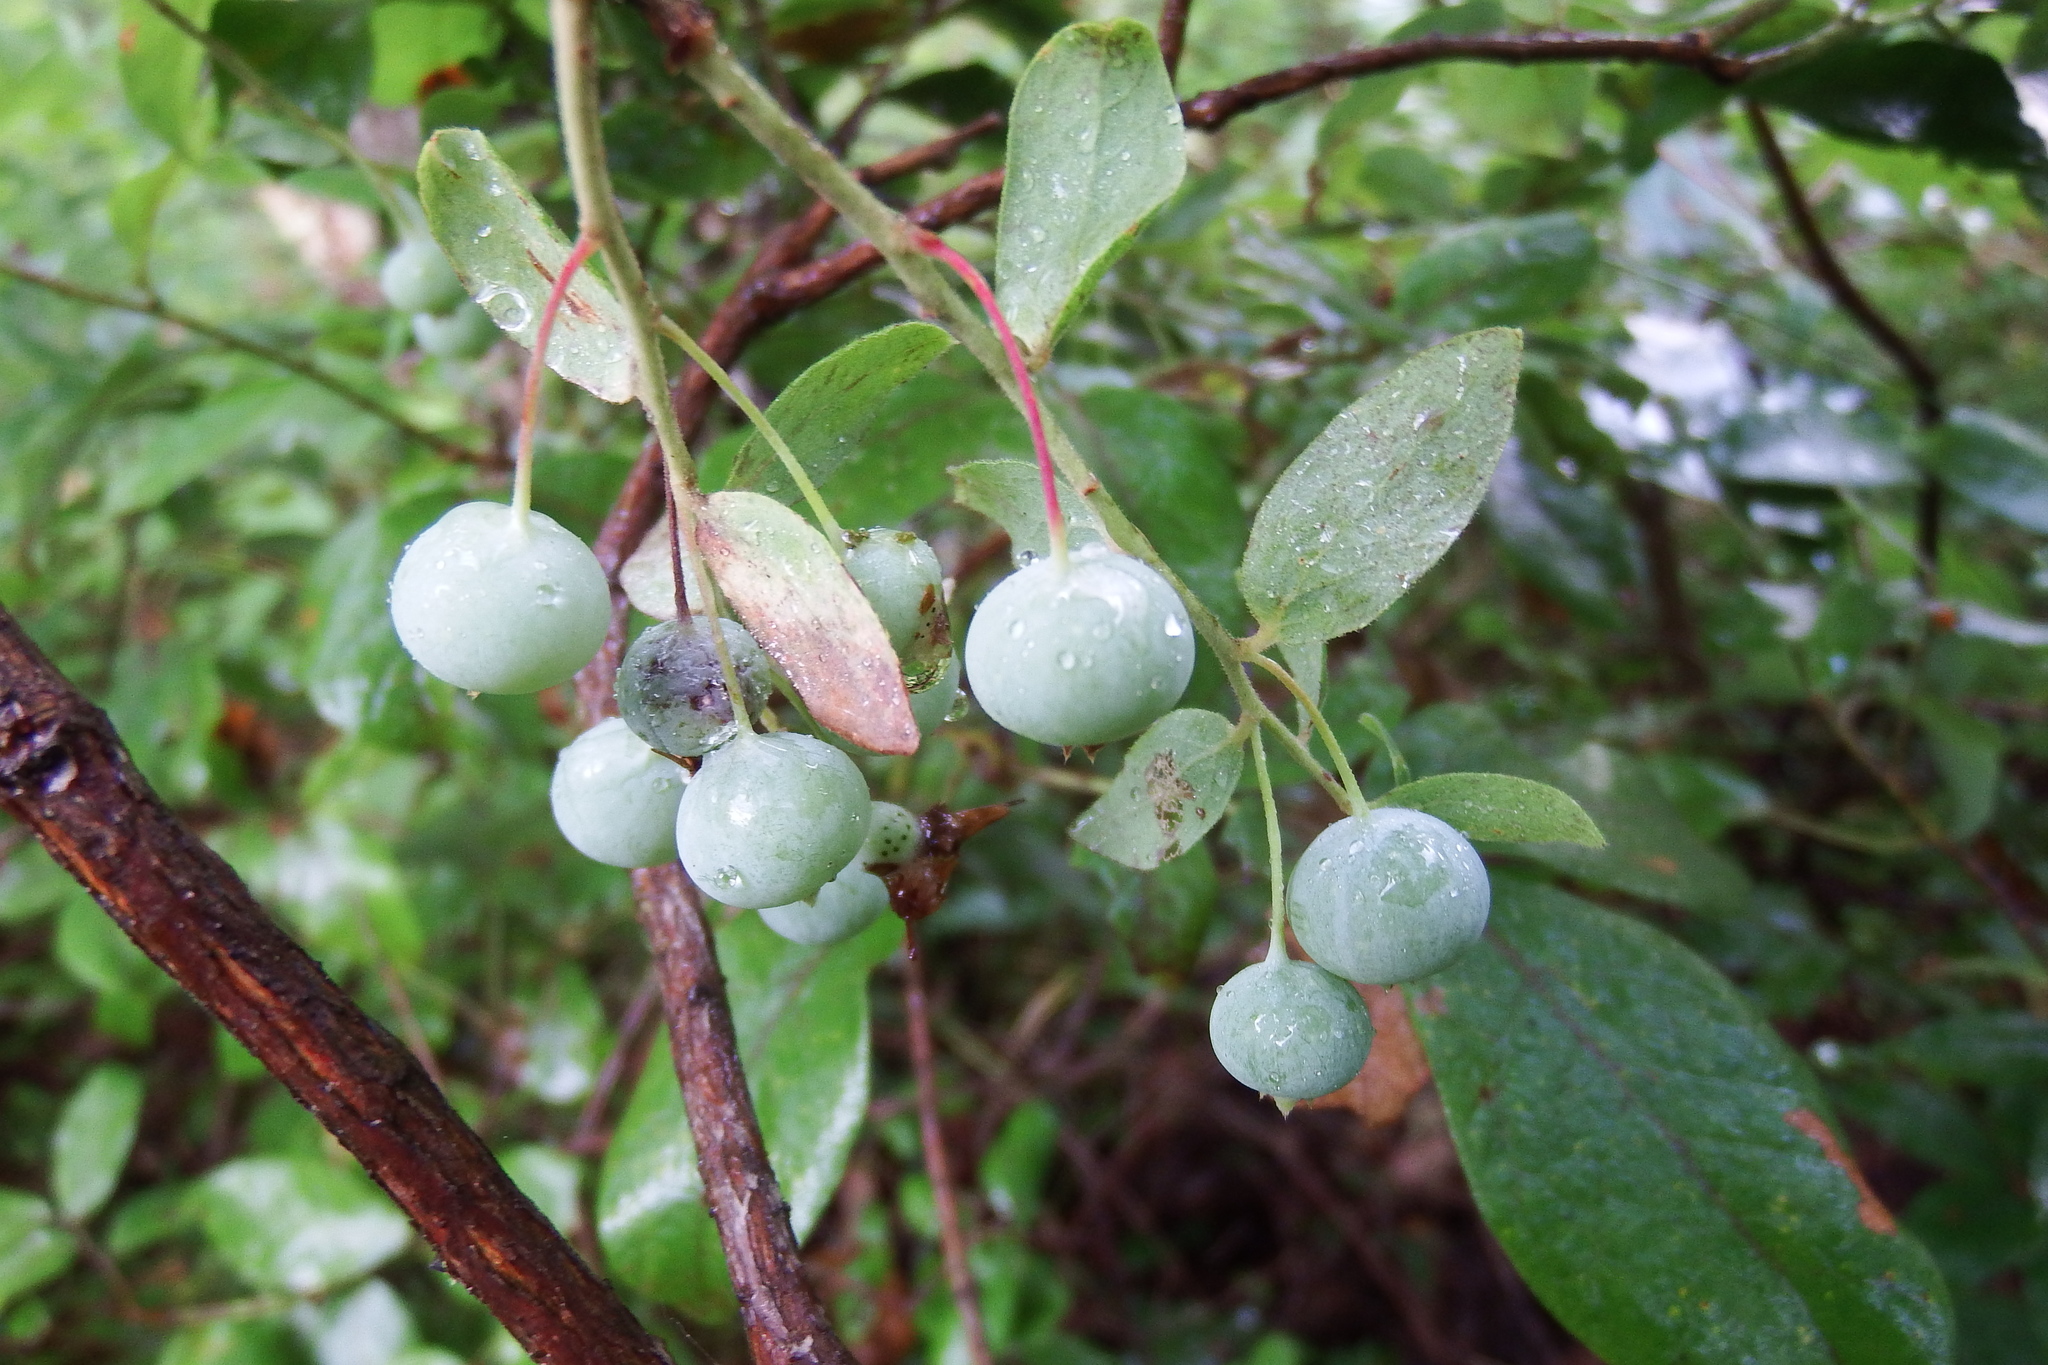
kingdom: Plantae
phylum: Tracheophyta
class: Polypodiopsida
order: Polypodiales
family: Dryopteridaceae
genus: Dryopteris
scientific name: Dryopteris marginalis
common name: Marginal wood fern
